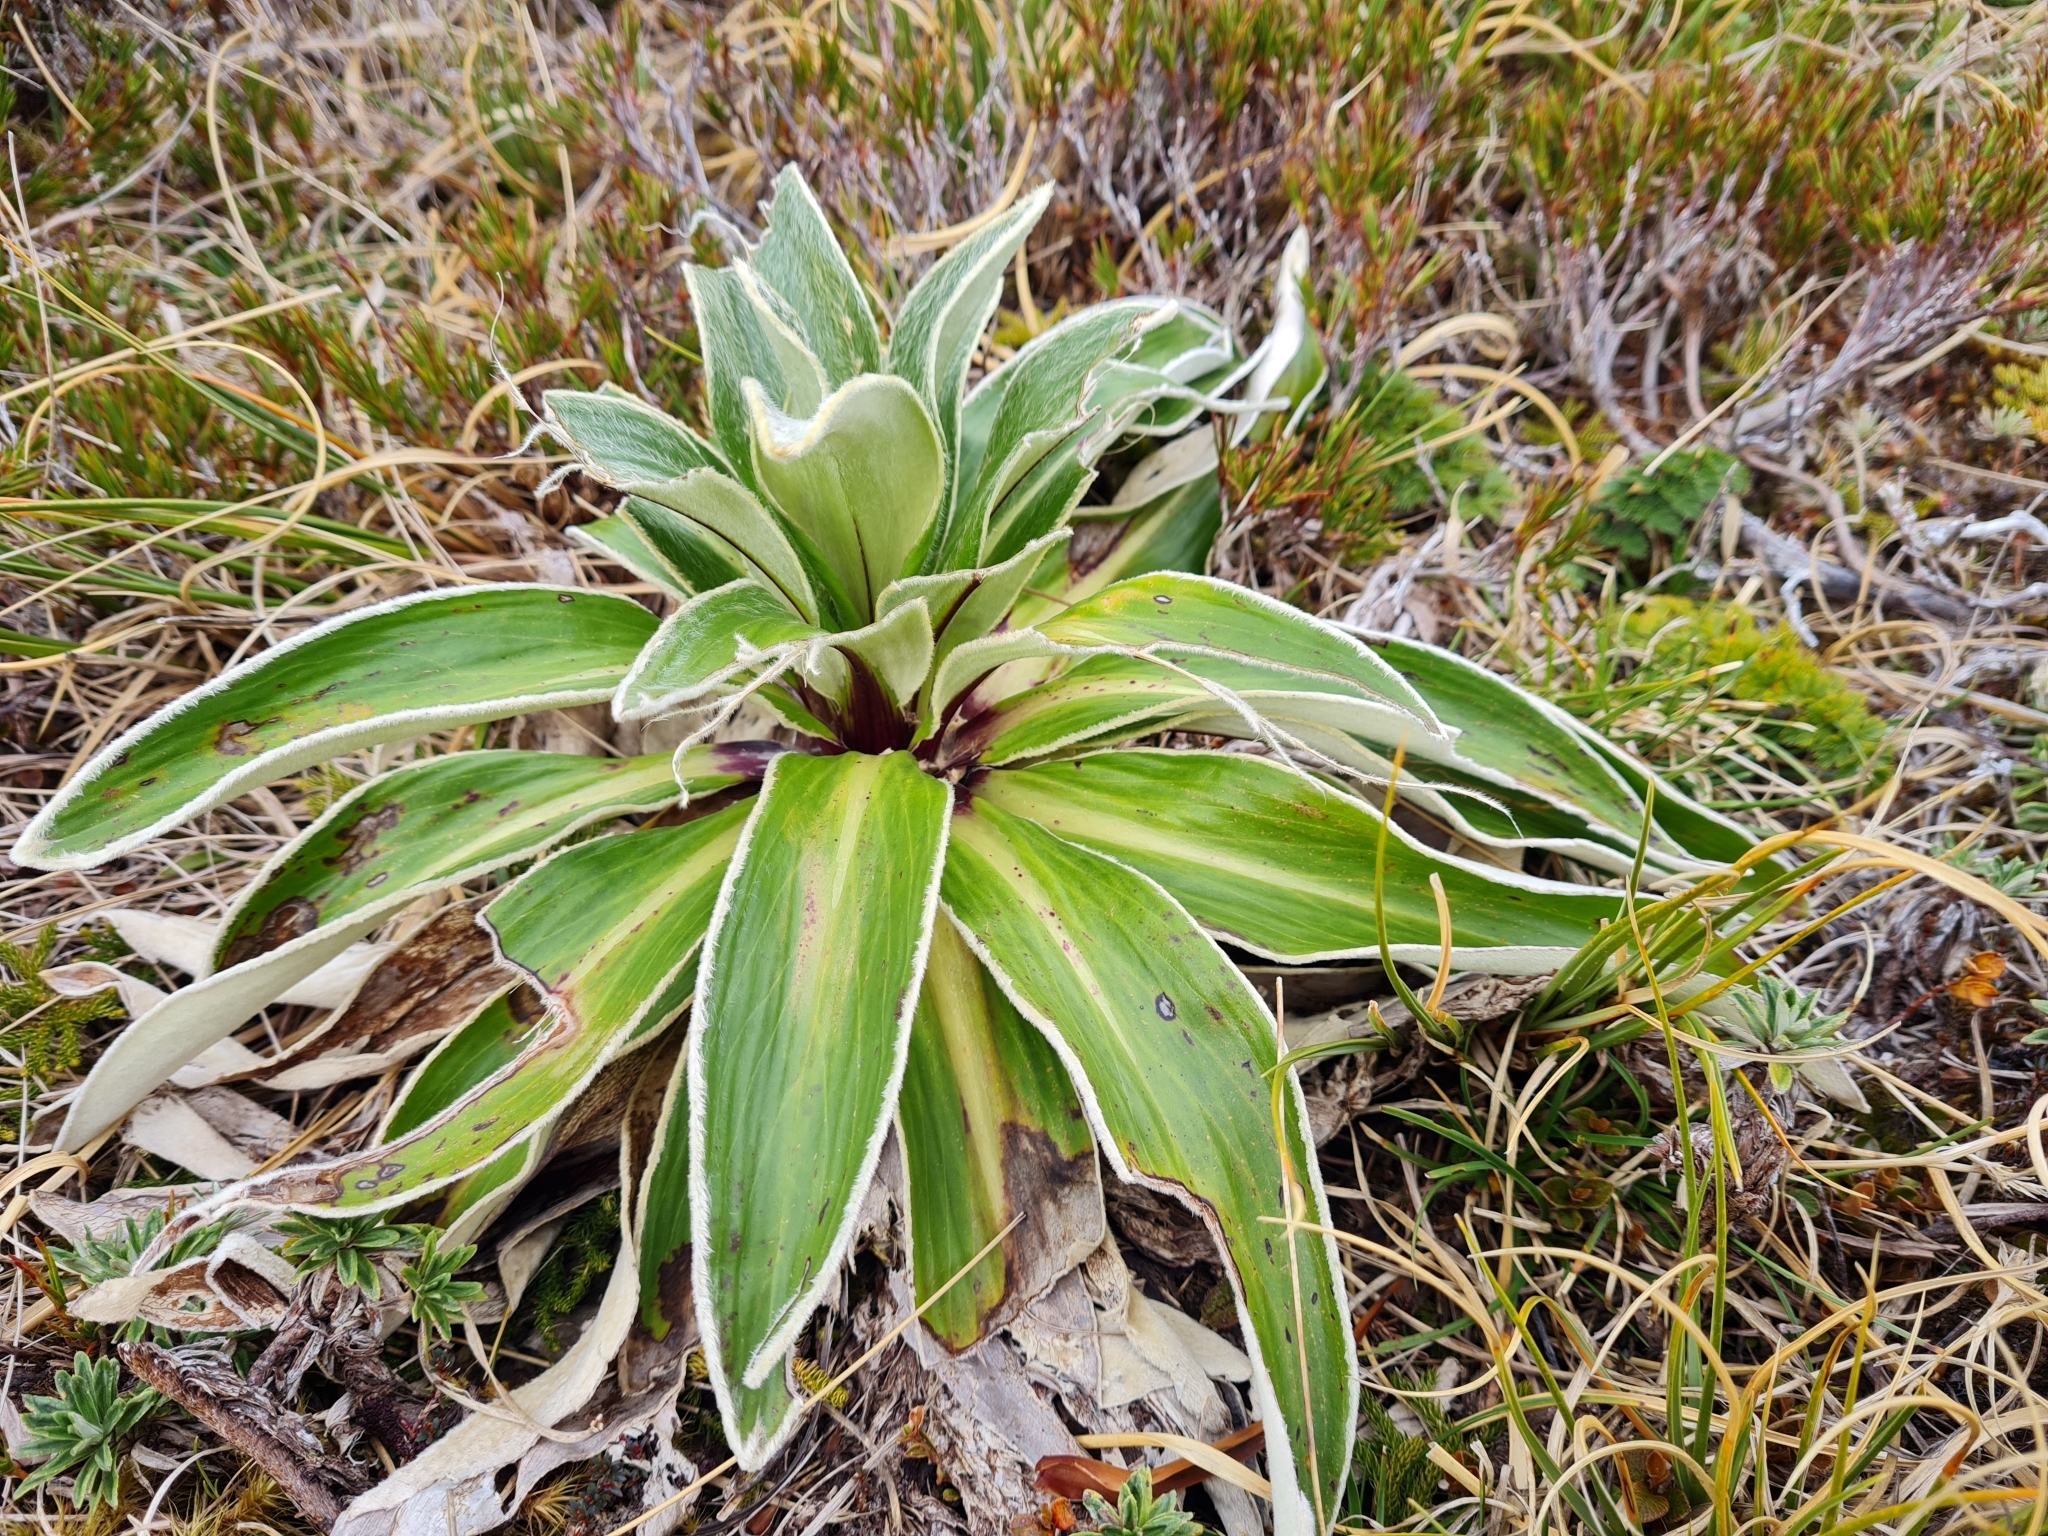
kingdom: Plantae
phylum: Tracheophyta
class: Magnoliopsida
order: Asterales
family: Asteraceae
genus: Celmisia
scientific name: Celmisia verbascifolia
